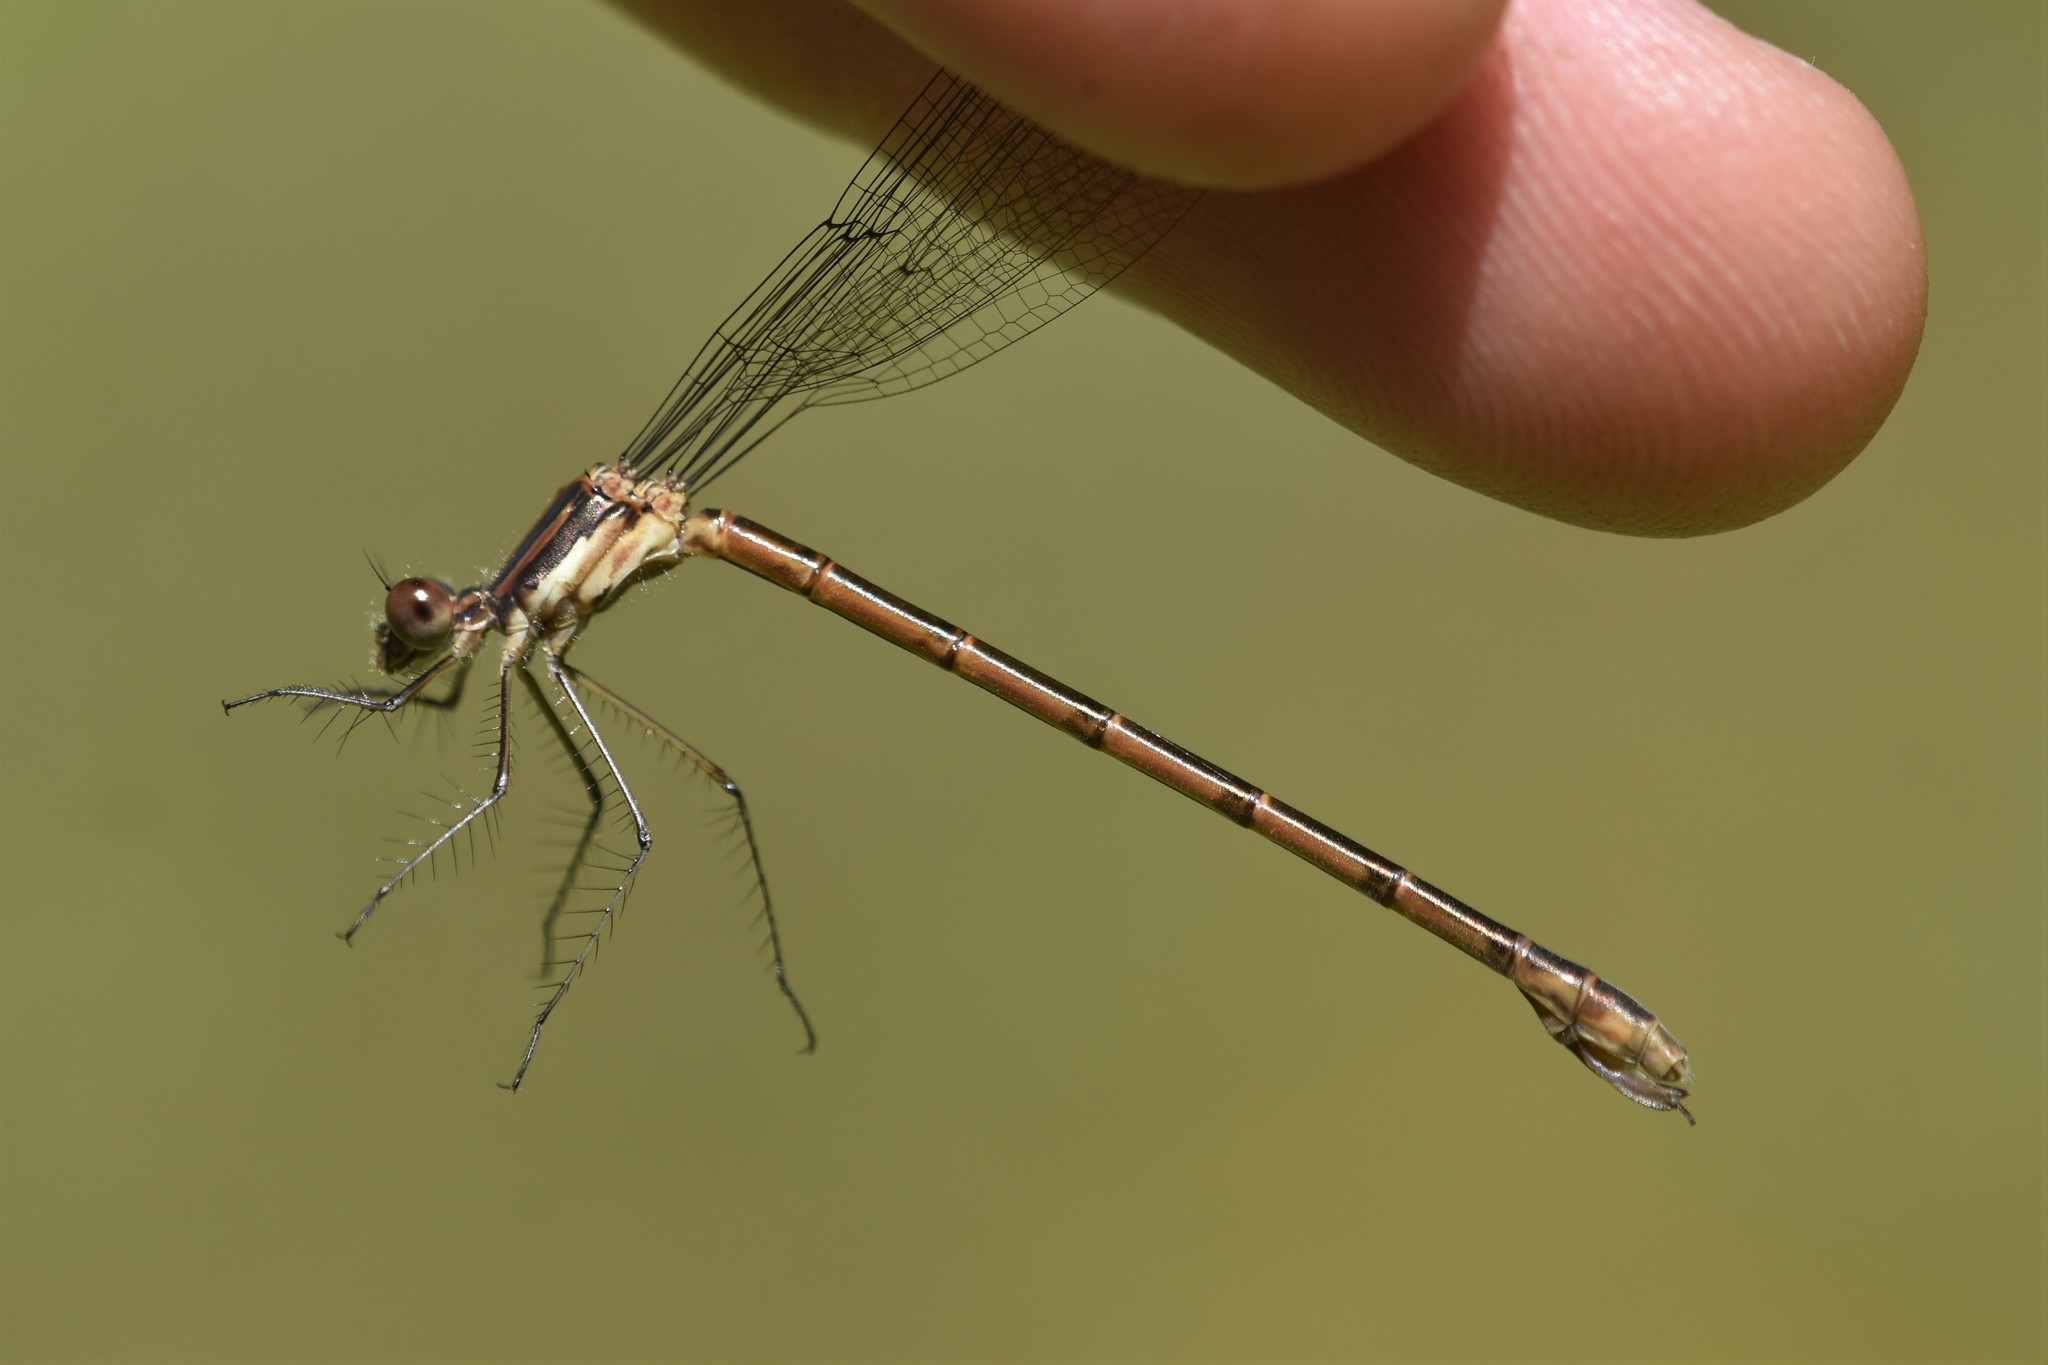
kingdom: Animalia
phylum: Arthropoda
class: Insecta
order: Odonata
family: Lestidae
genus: Lestes
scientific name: Lestes forcipatus
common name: Sweetflag spreadwing
